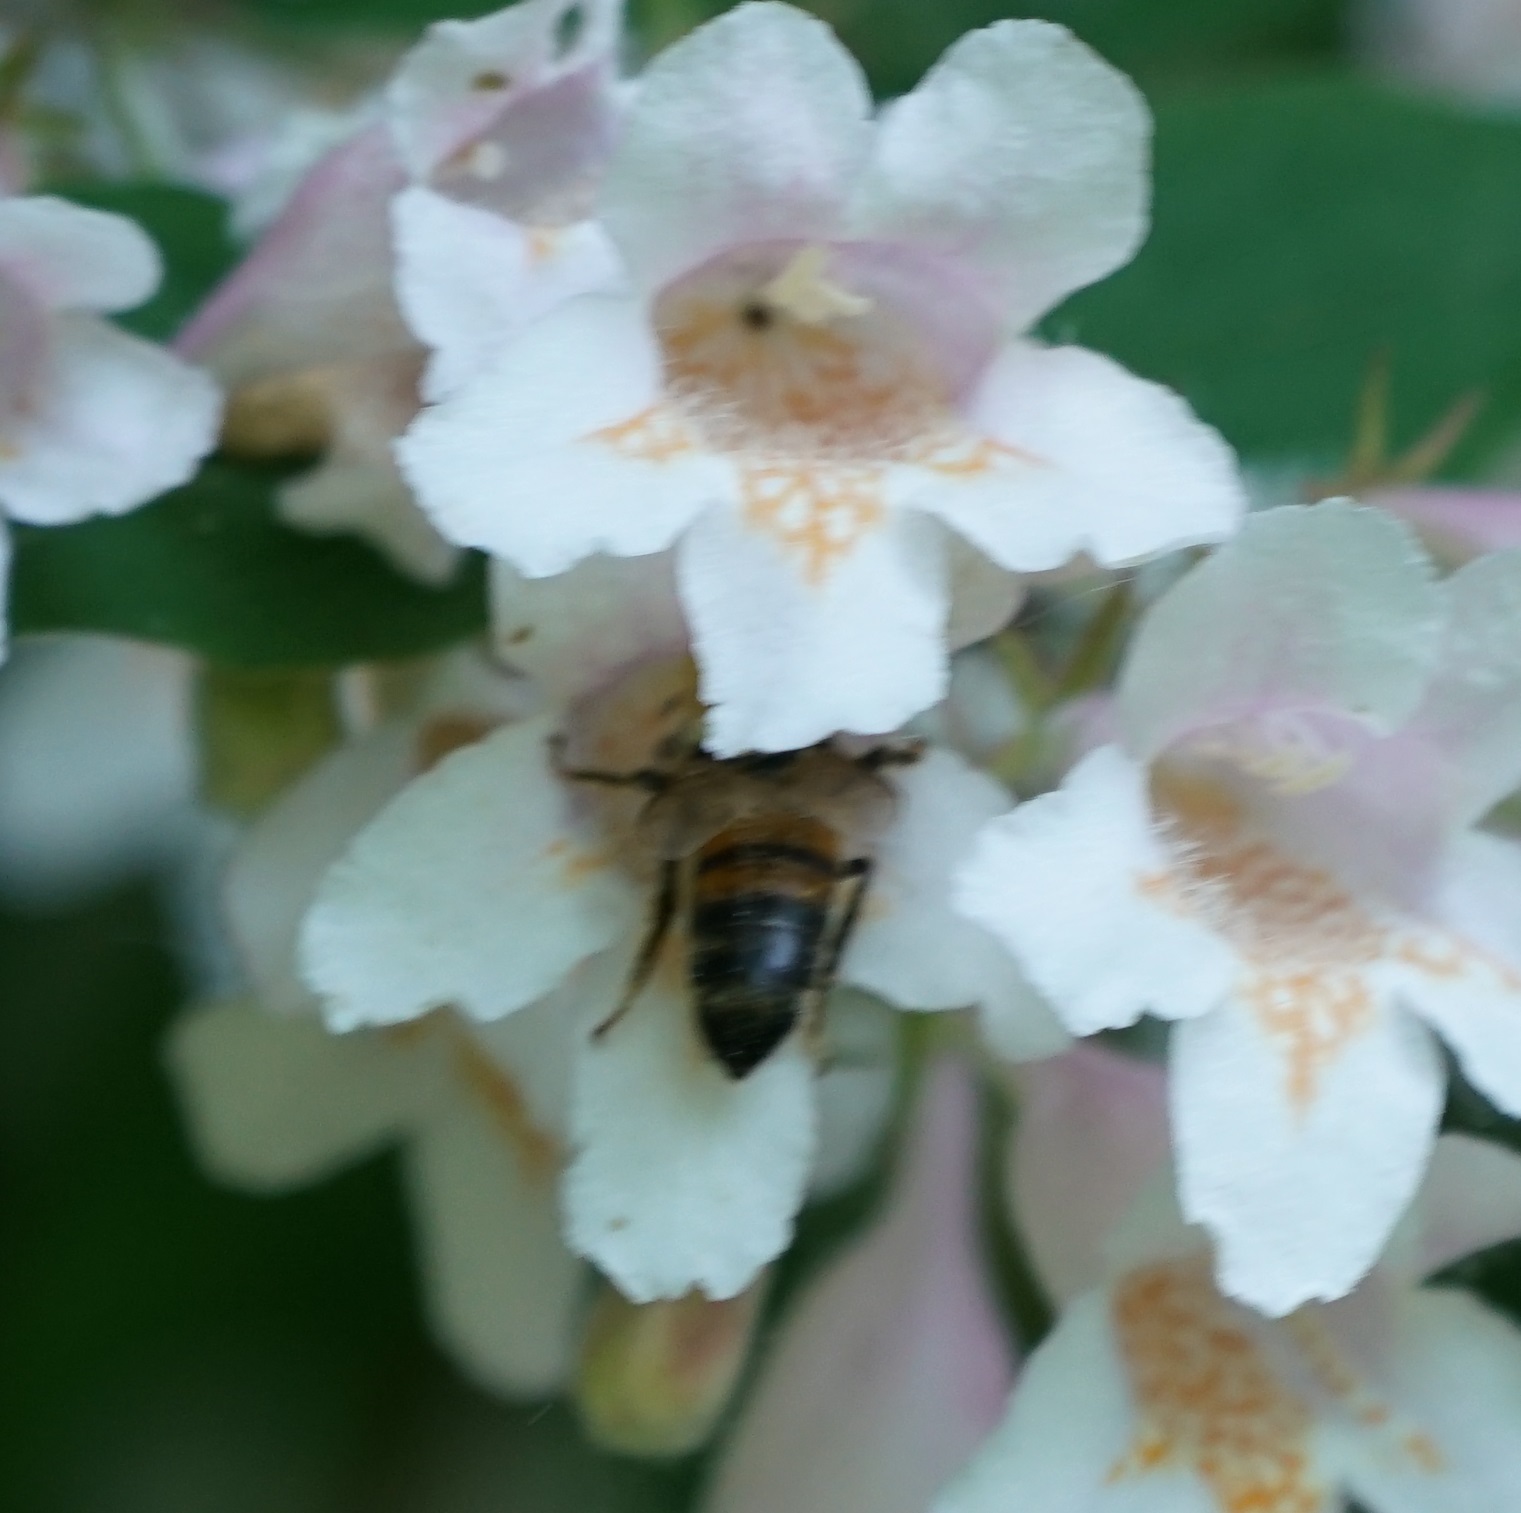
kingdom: Animalia
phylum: Arthropoda
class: Insecta
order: Hymenoptera
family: Apidae
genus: Apis
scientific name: Apis mellifera
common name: Honey bee
